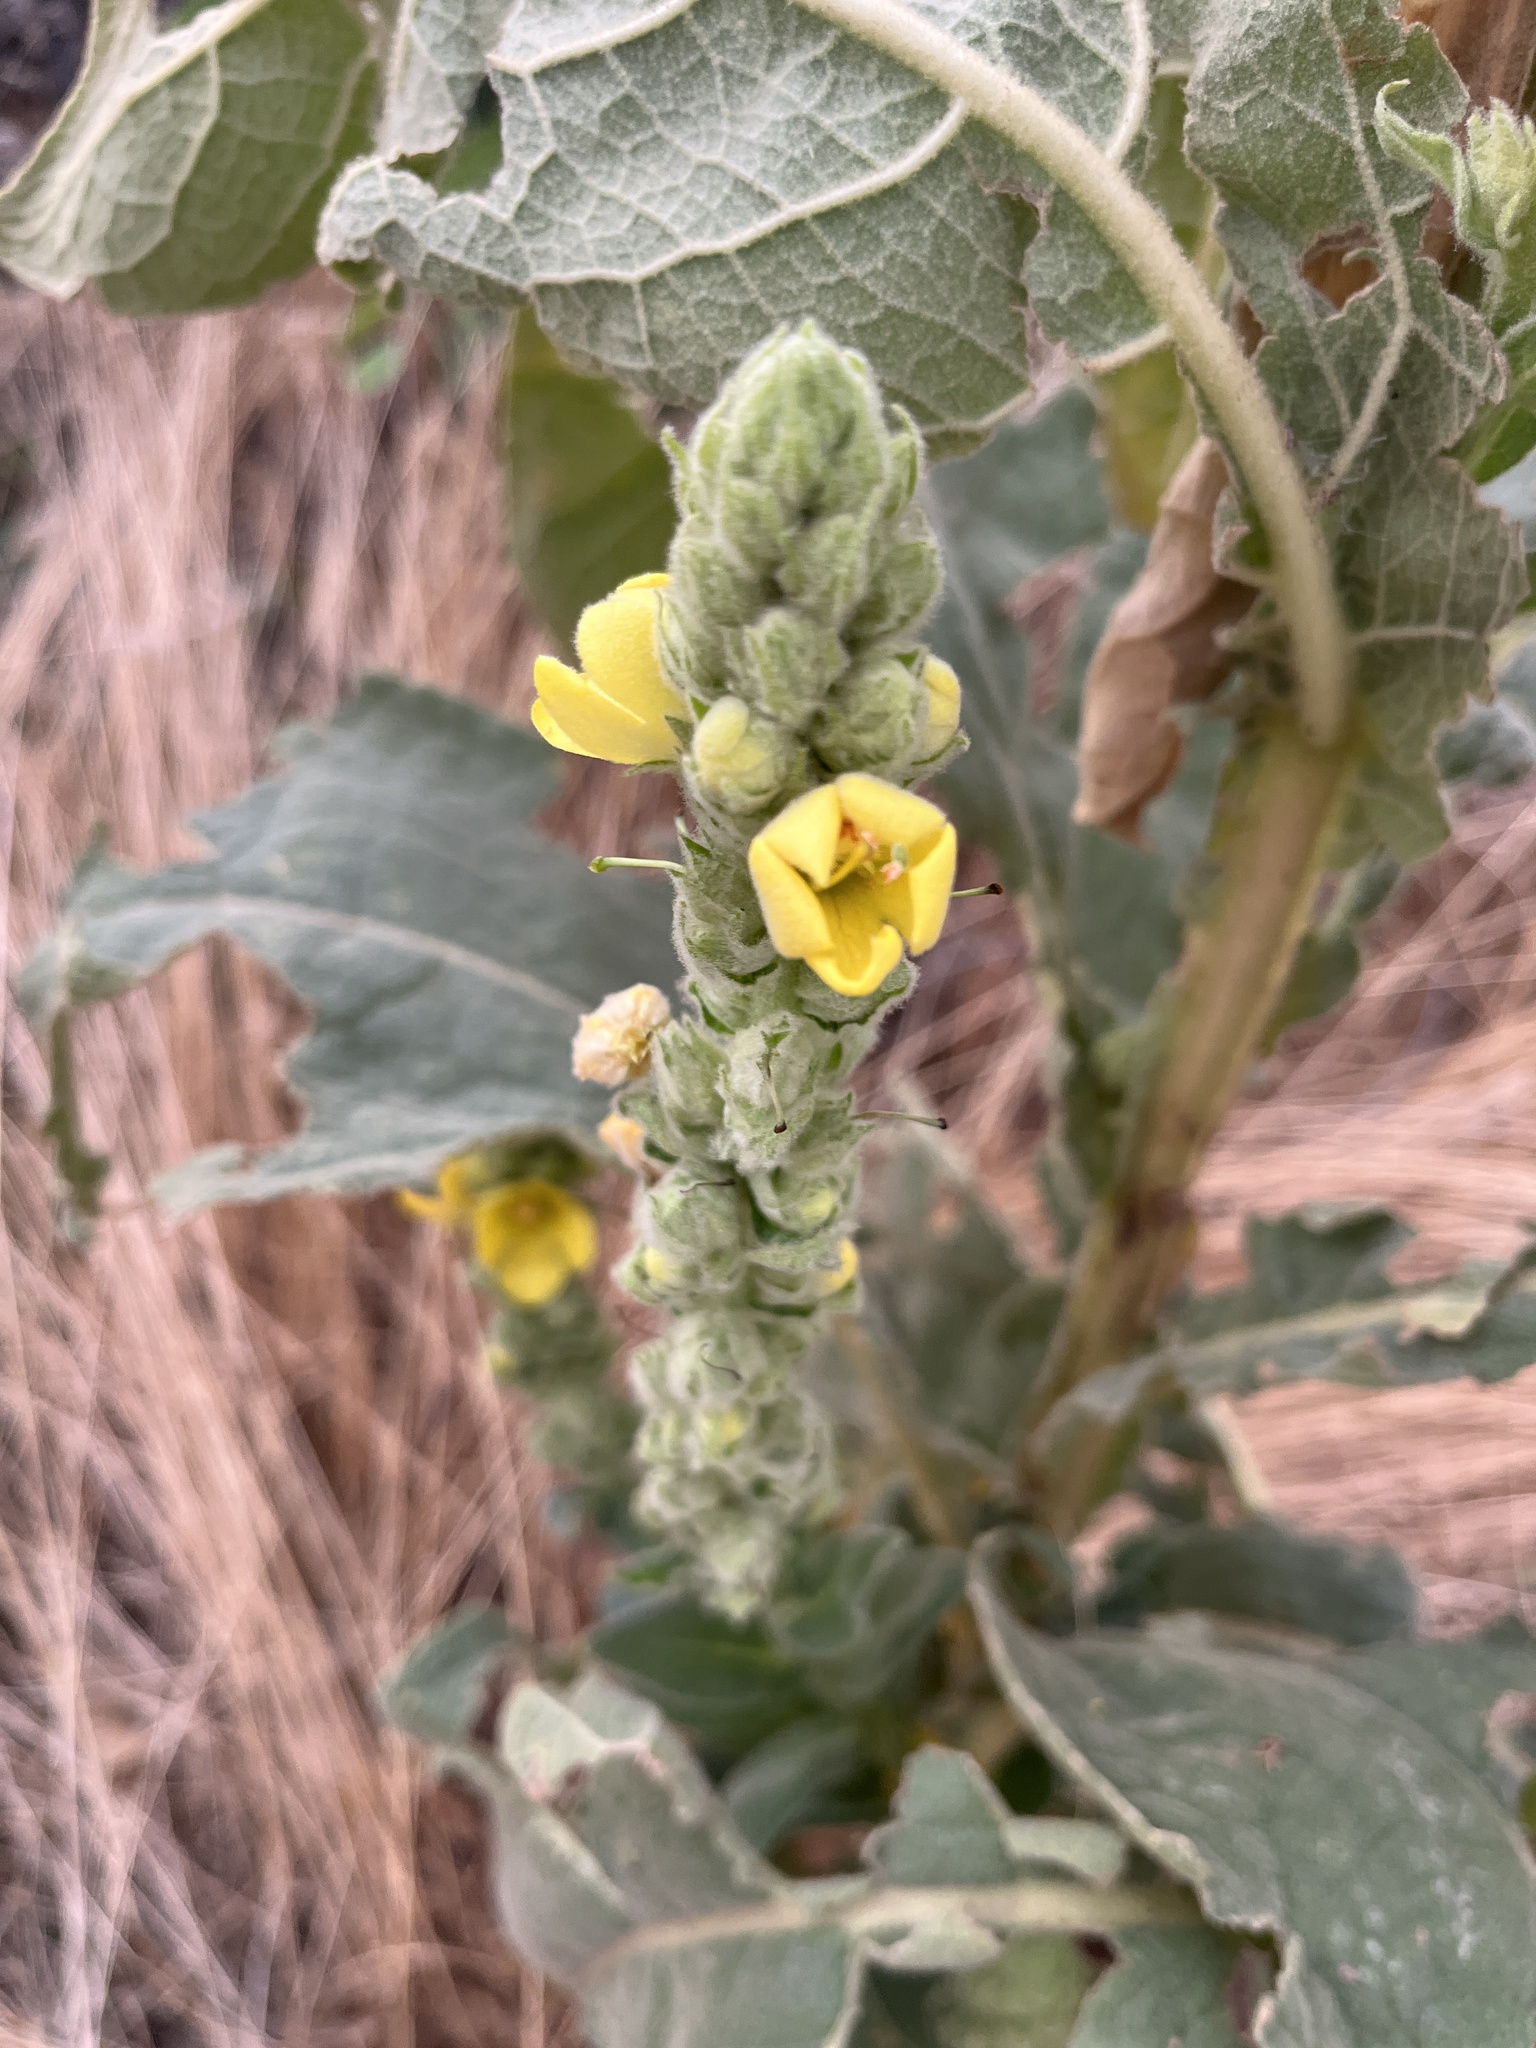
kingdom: Plantae
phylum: Tracheophyta
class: Magnoliopsida
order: Lamiales
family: Scrophulariaceae
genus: Verbascum
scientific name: Verbascum thapsus
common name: Common mullein
